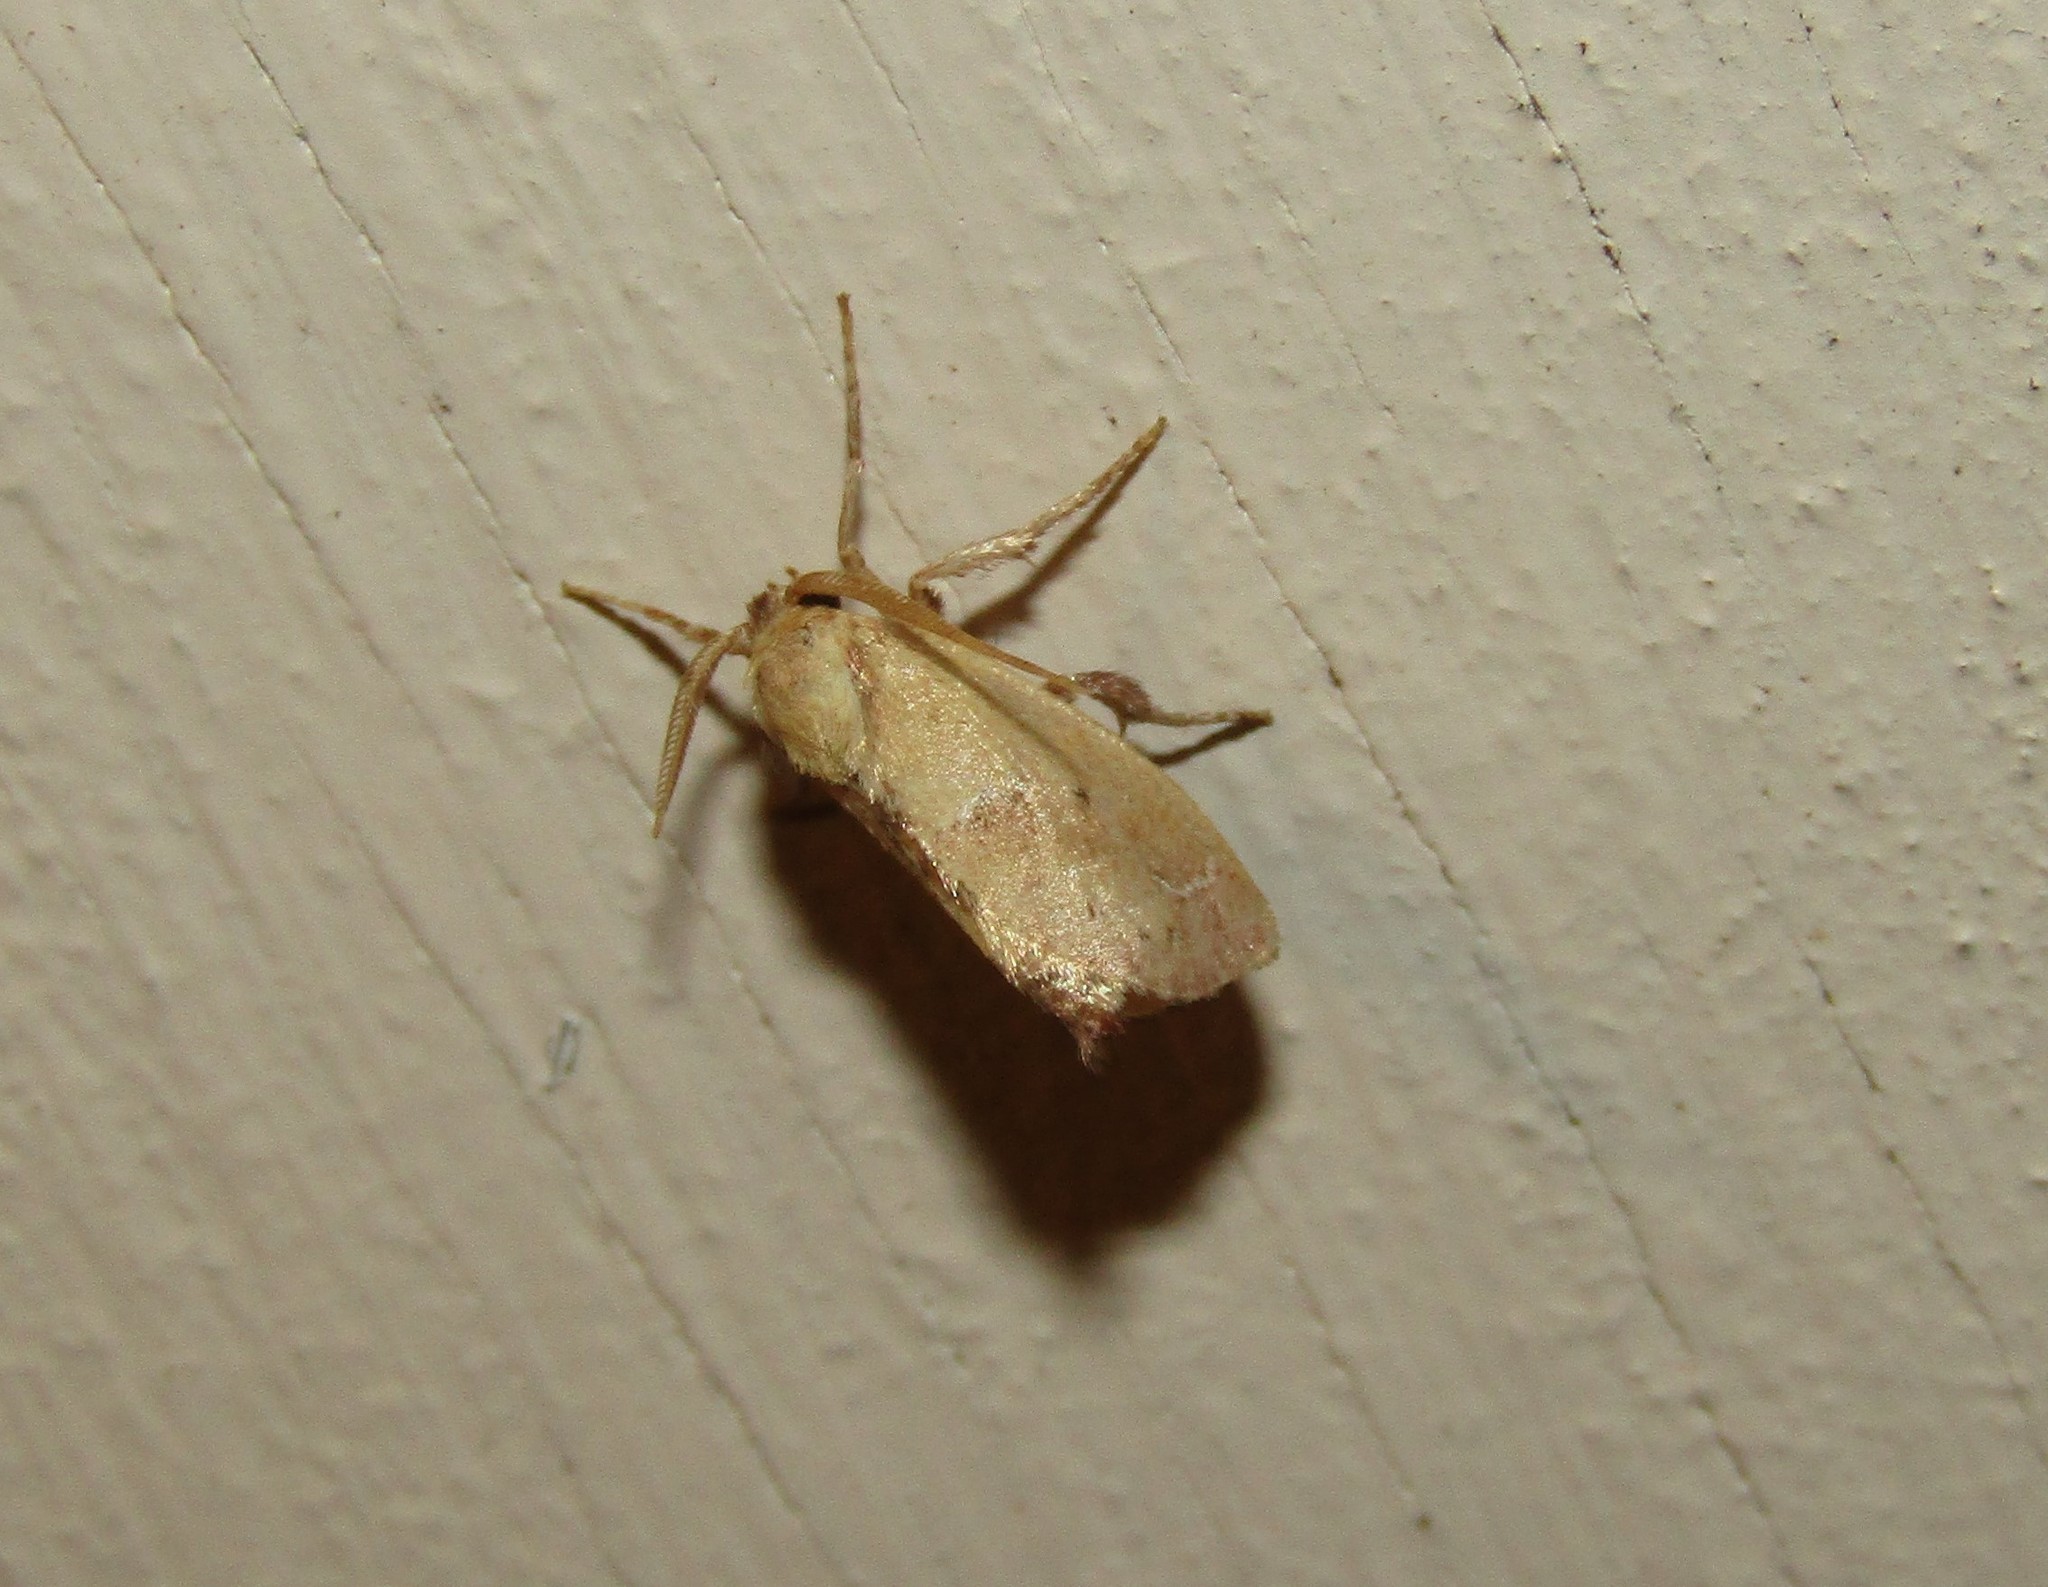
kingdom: Animalia
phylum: Arthropoda
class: Insecta
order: Lepidoptera
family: Limacodidae
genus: Adoneta
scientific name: Adoneta bicaudata
